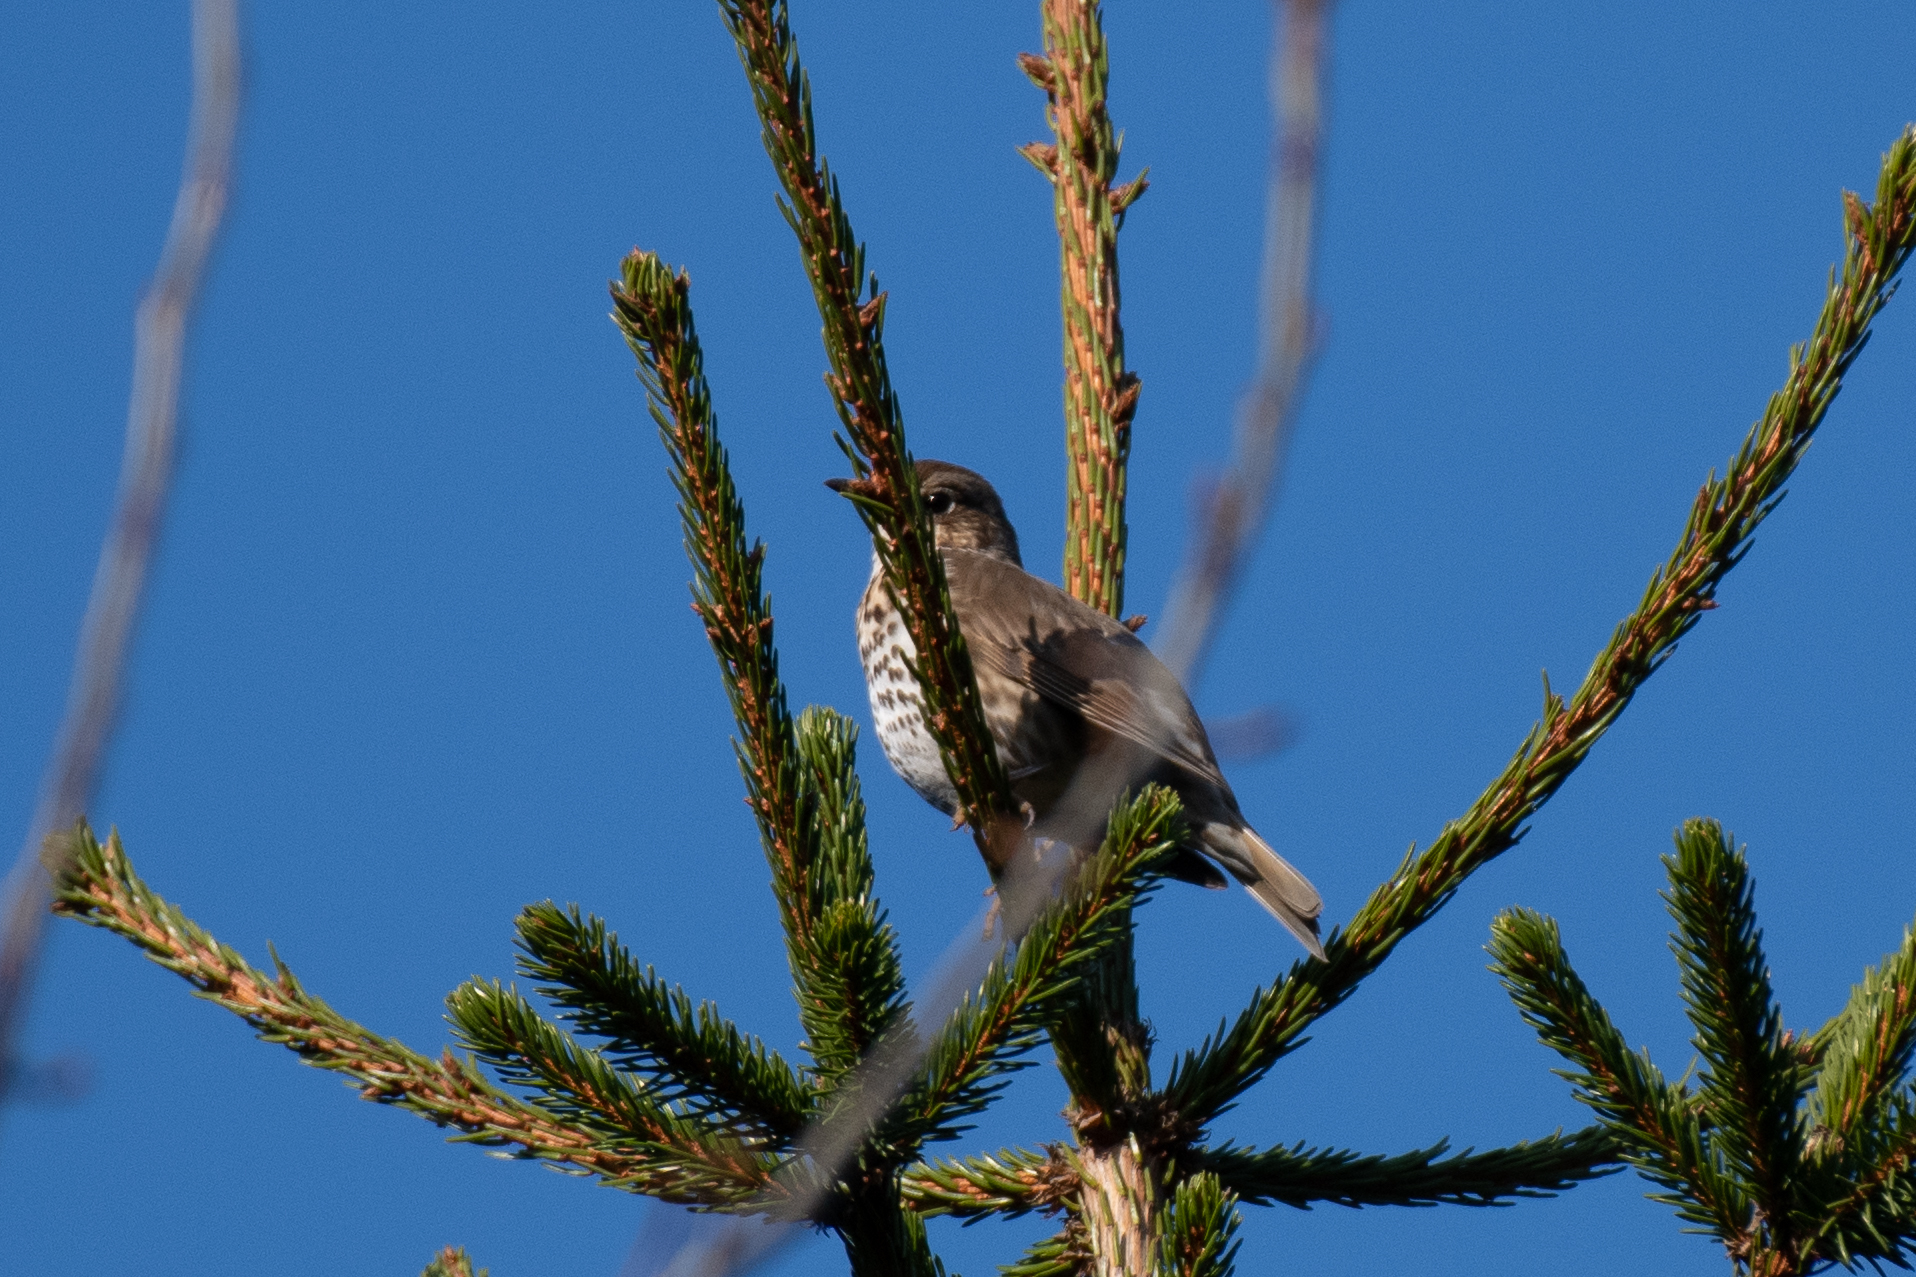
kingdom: Animalia
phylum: Chordata
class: Aves
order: Passeriformes
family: Turdidae
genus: Turdus
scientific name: Turdus philomelos
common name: Song thrush
